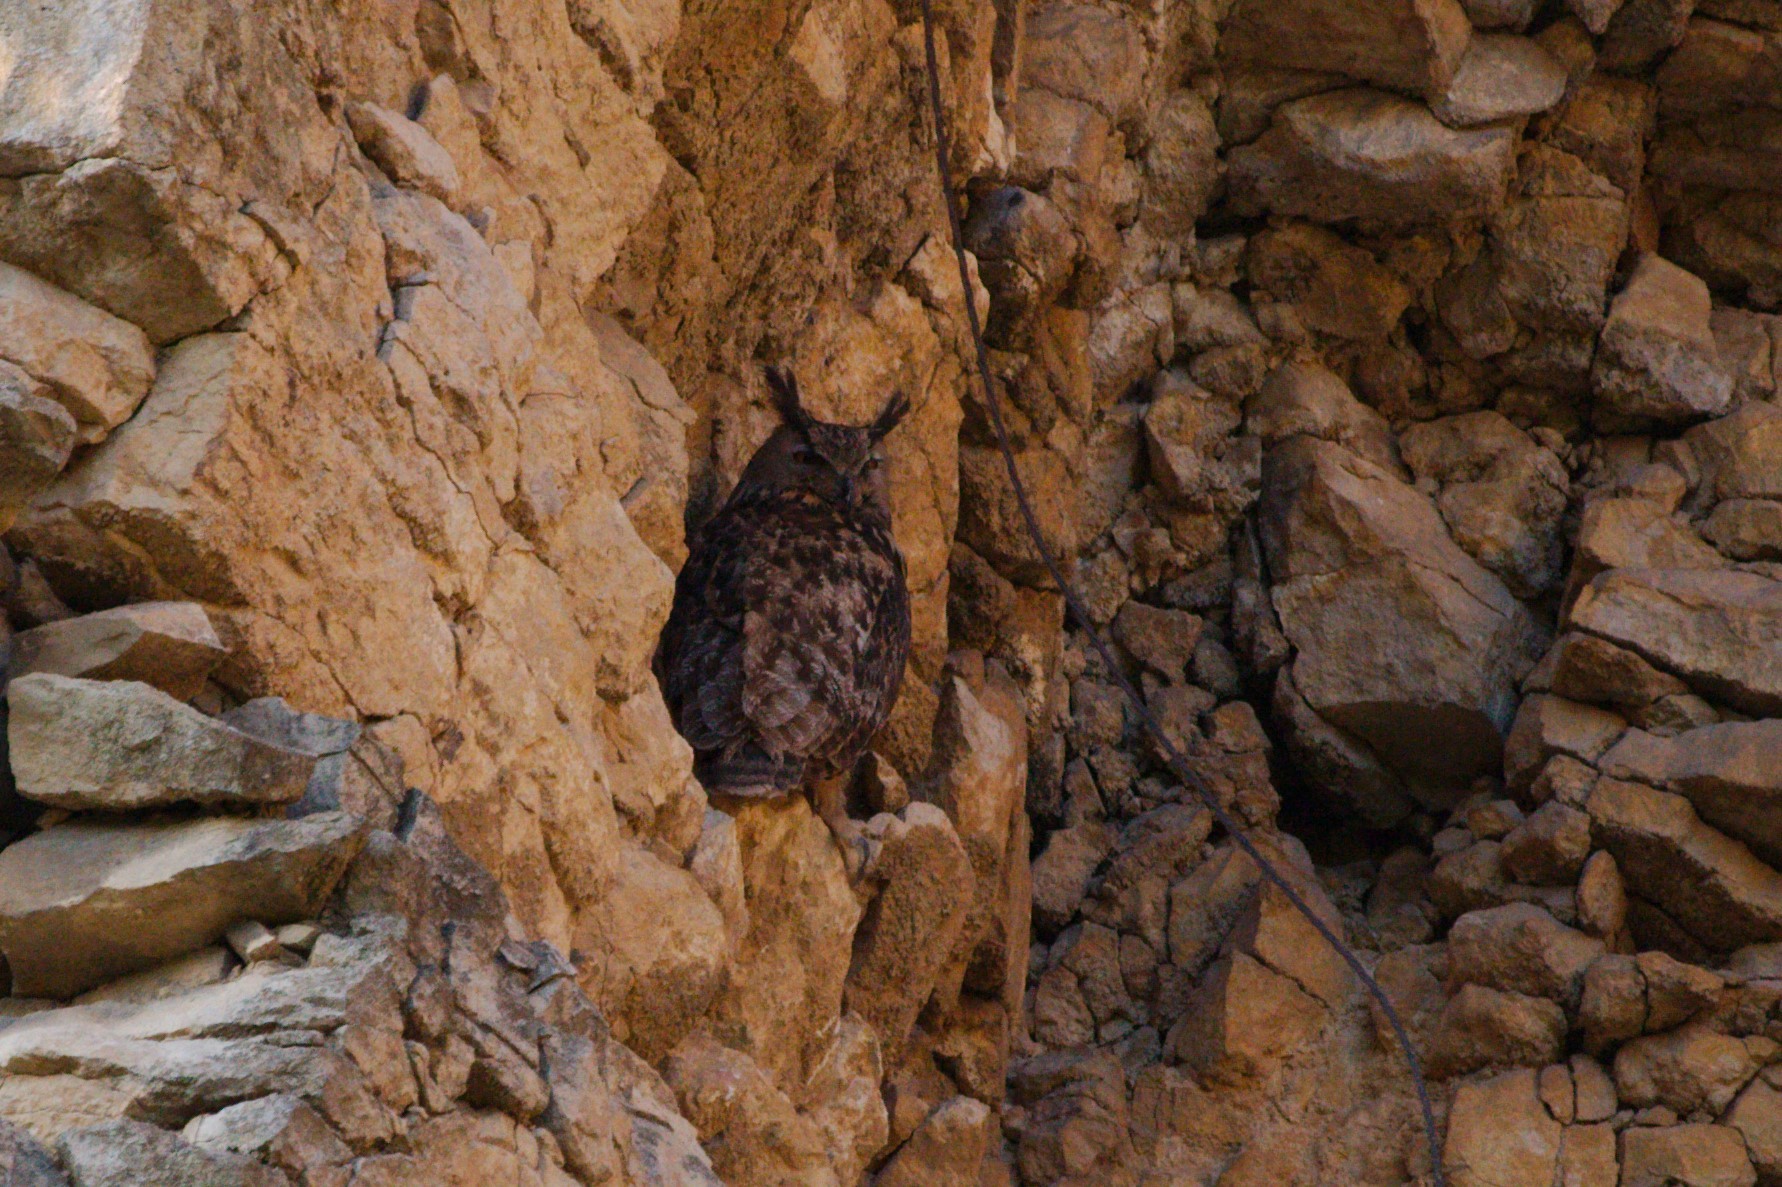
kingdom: Animalia
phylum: Chordata
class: Aves
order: Strigiformes
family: Strigidae
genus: Bubo
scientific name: Bubo bubo
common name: Eurasian eagle-owl
